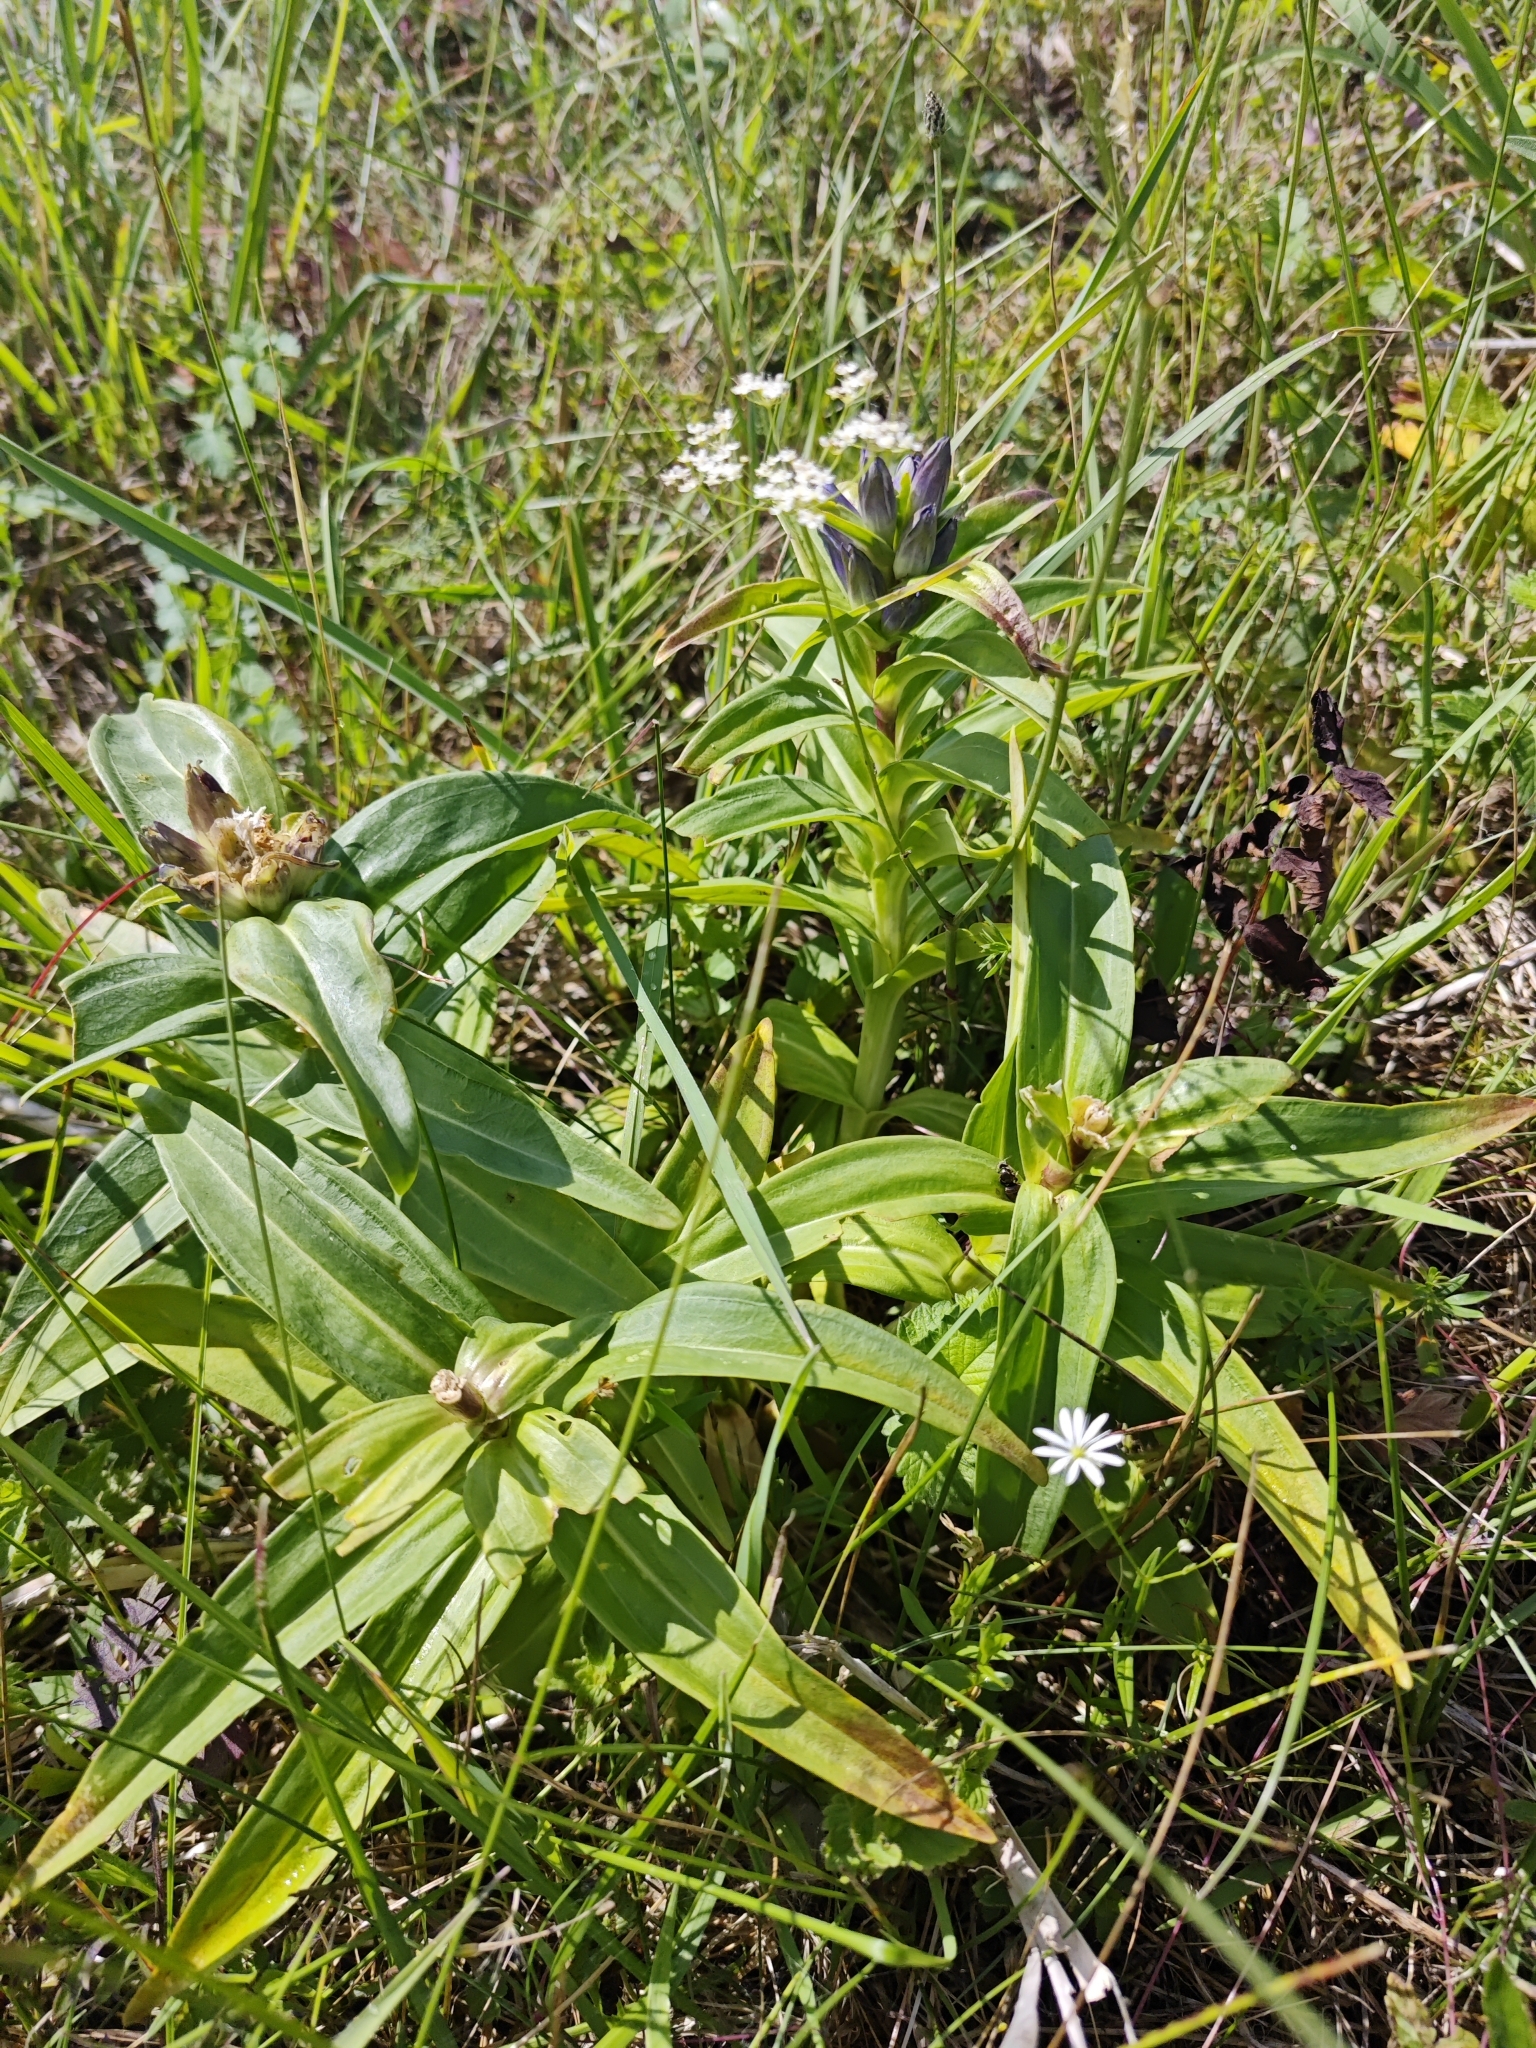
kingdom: Plantae
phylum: Tracheophyta
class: Magnoliopsida
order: Gentianales
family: Gentianaceae
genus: Gentiana
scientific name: Gentiana cruciata
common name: Cross gentian
